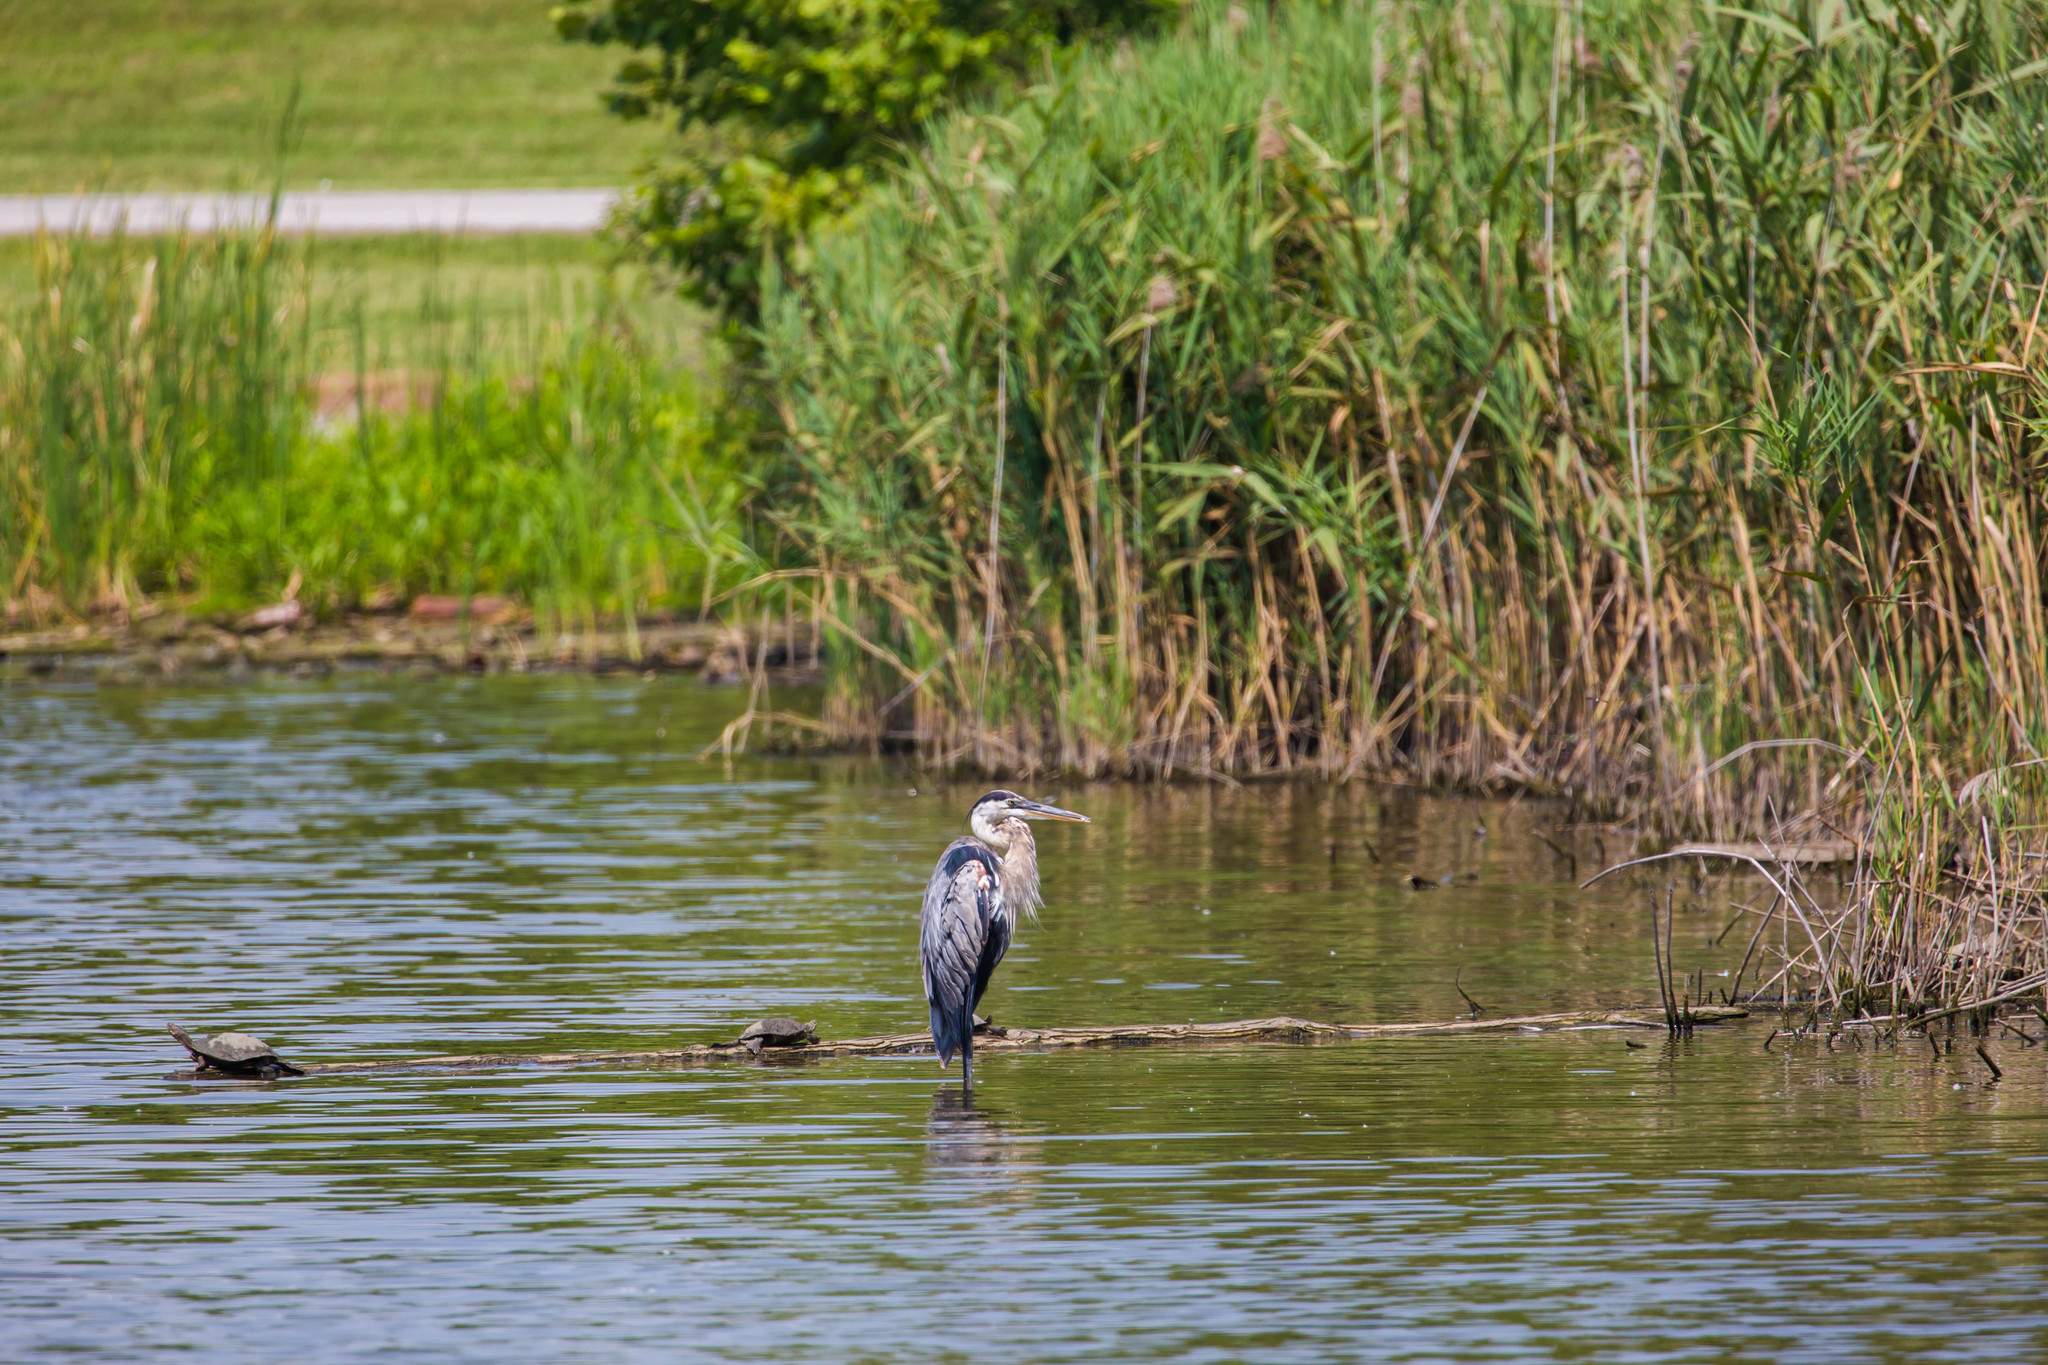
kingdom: Animalia
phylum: Chordata
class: Aves
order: Pelecaniformes
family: Ardeidae
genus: Ardea
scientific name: Ardea herodias
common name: Great blue heron
